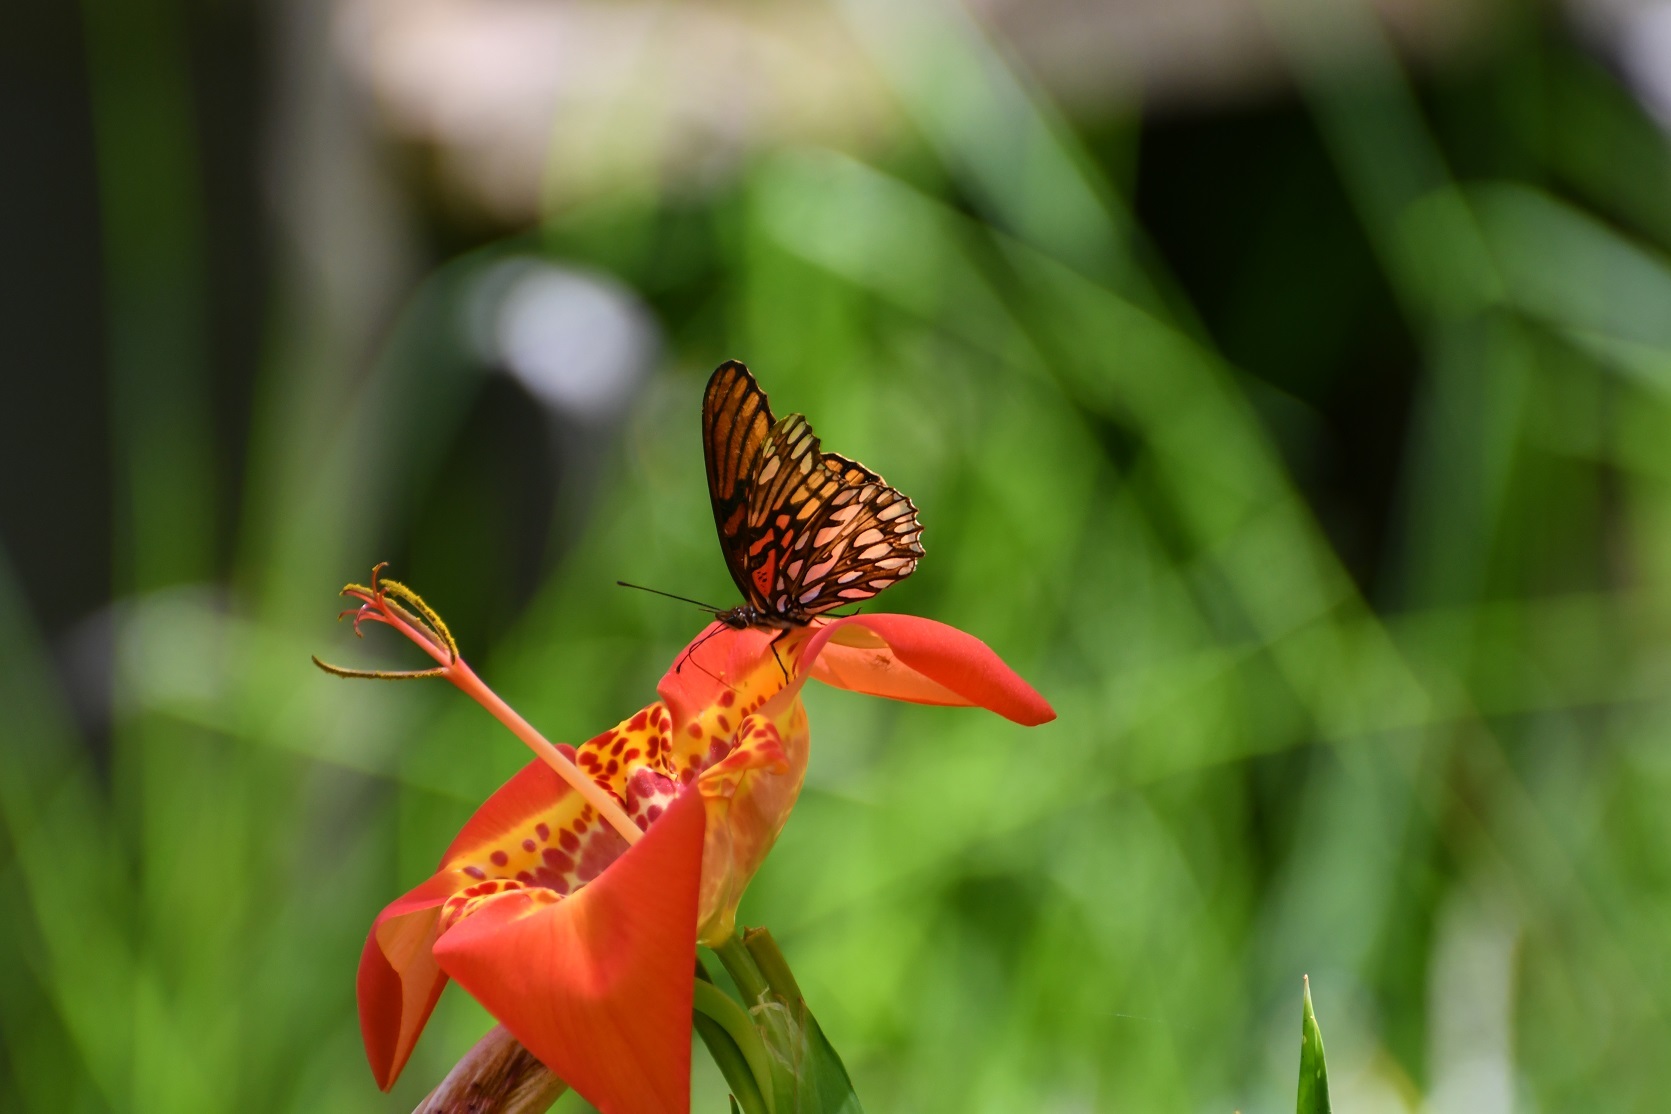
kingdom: Animalia
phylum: Arthropoda
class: Insecta
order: Lepidoptera
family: Nymphalidae
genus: Dione
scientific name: Dione moneta
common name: Mexican silverspot
